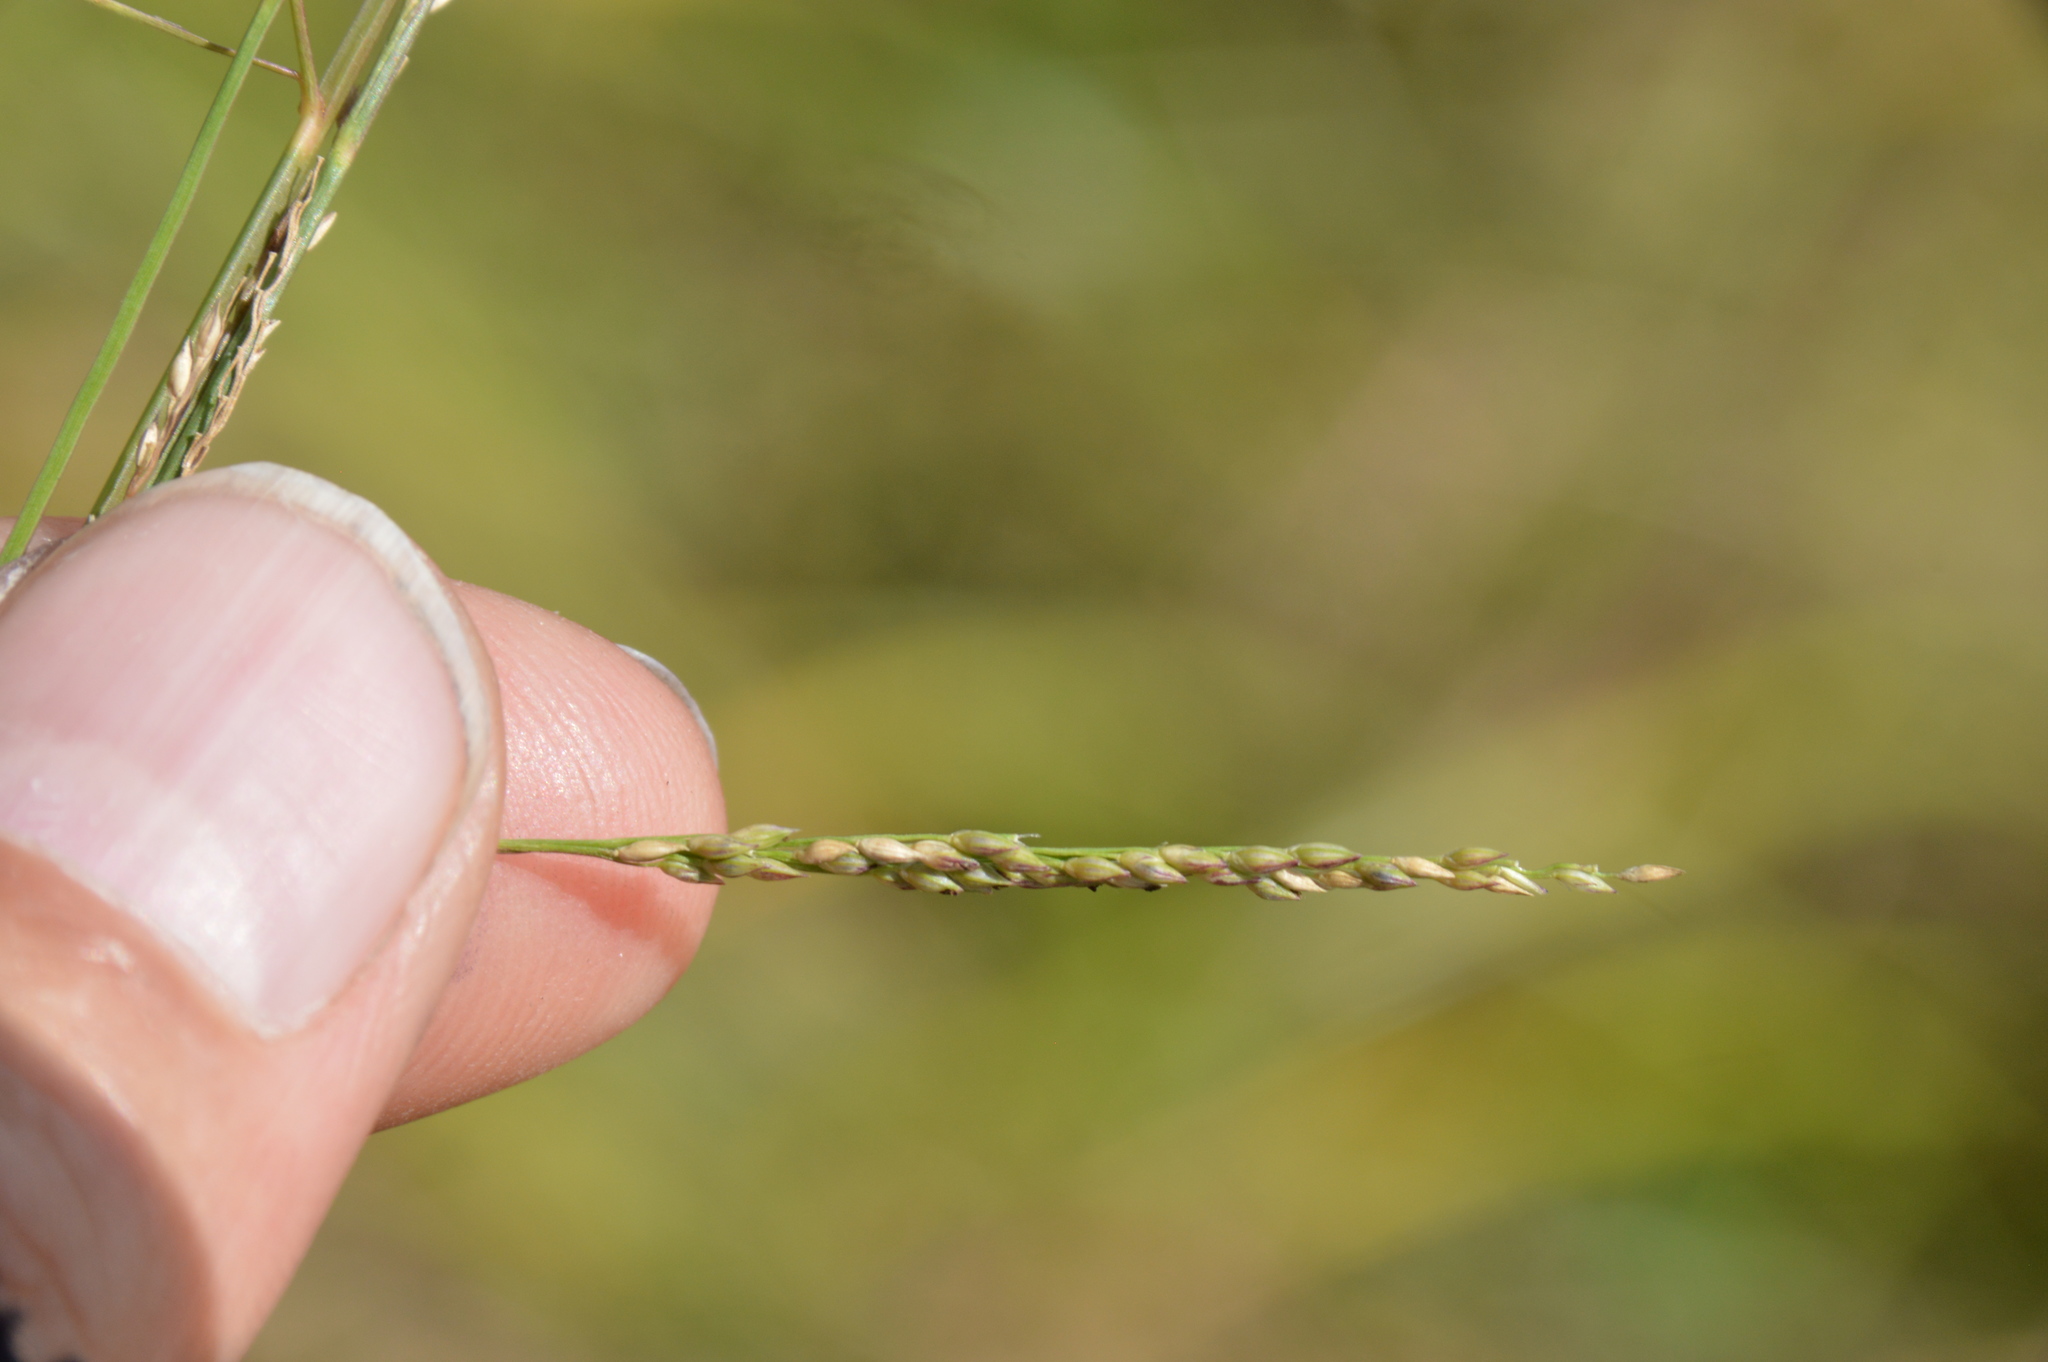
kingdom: Plantae
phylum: Tracheophyta
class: Liliopsida
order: Poales
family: Poaceae
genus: Coleataenia
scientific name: Coleataenia longifolia
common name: Long-leaved panicgrass
